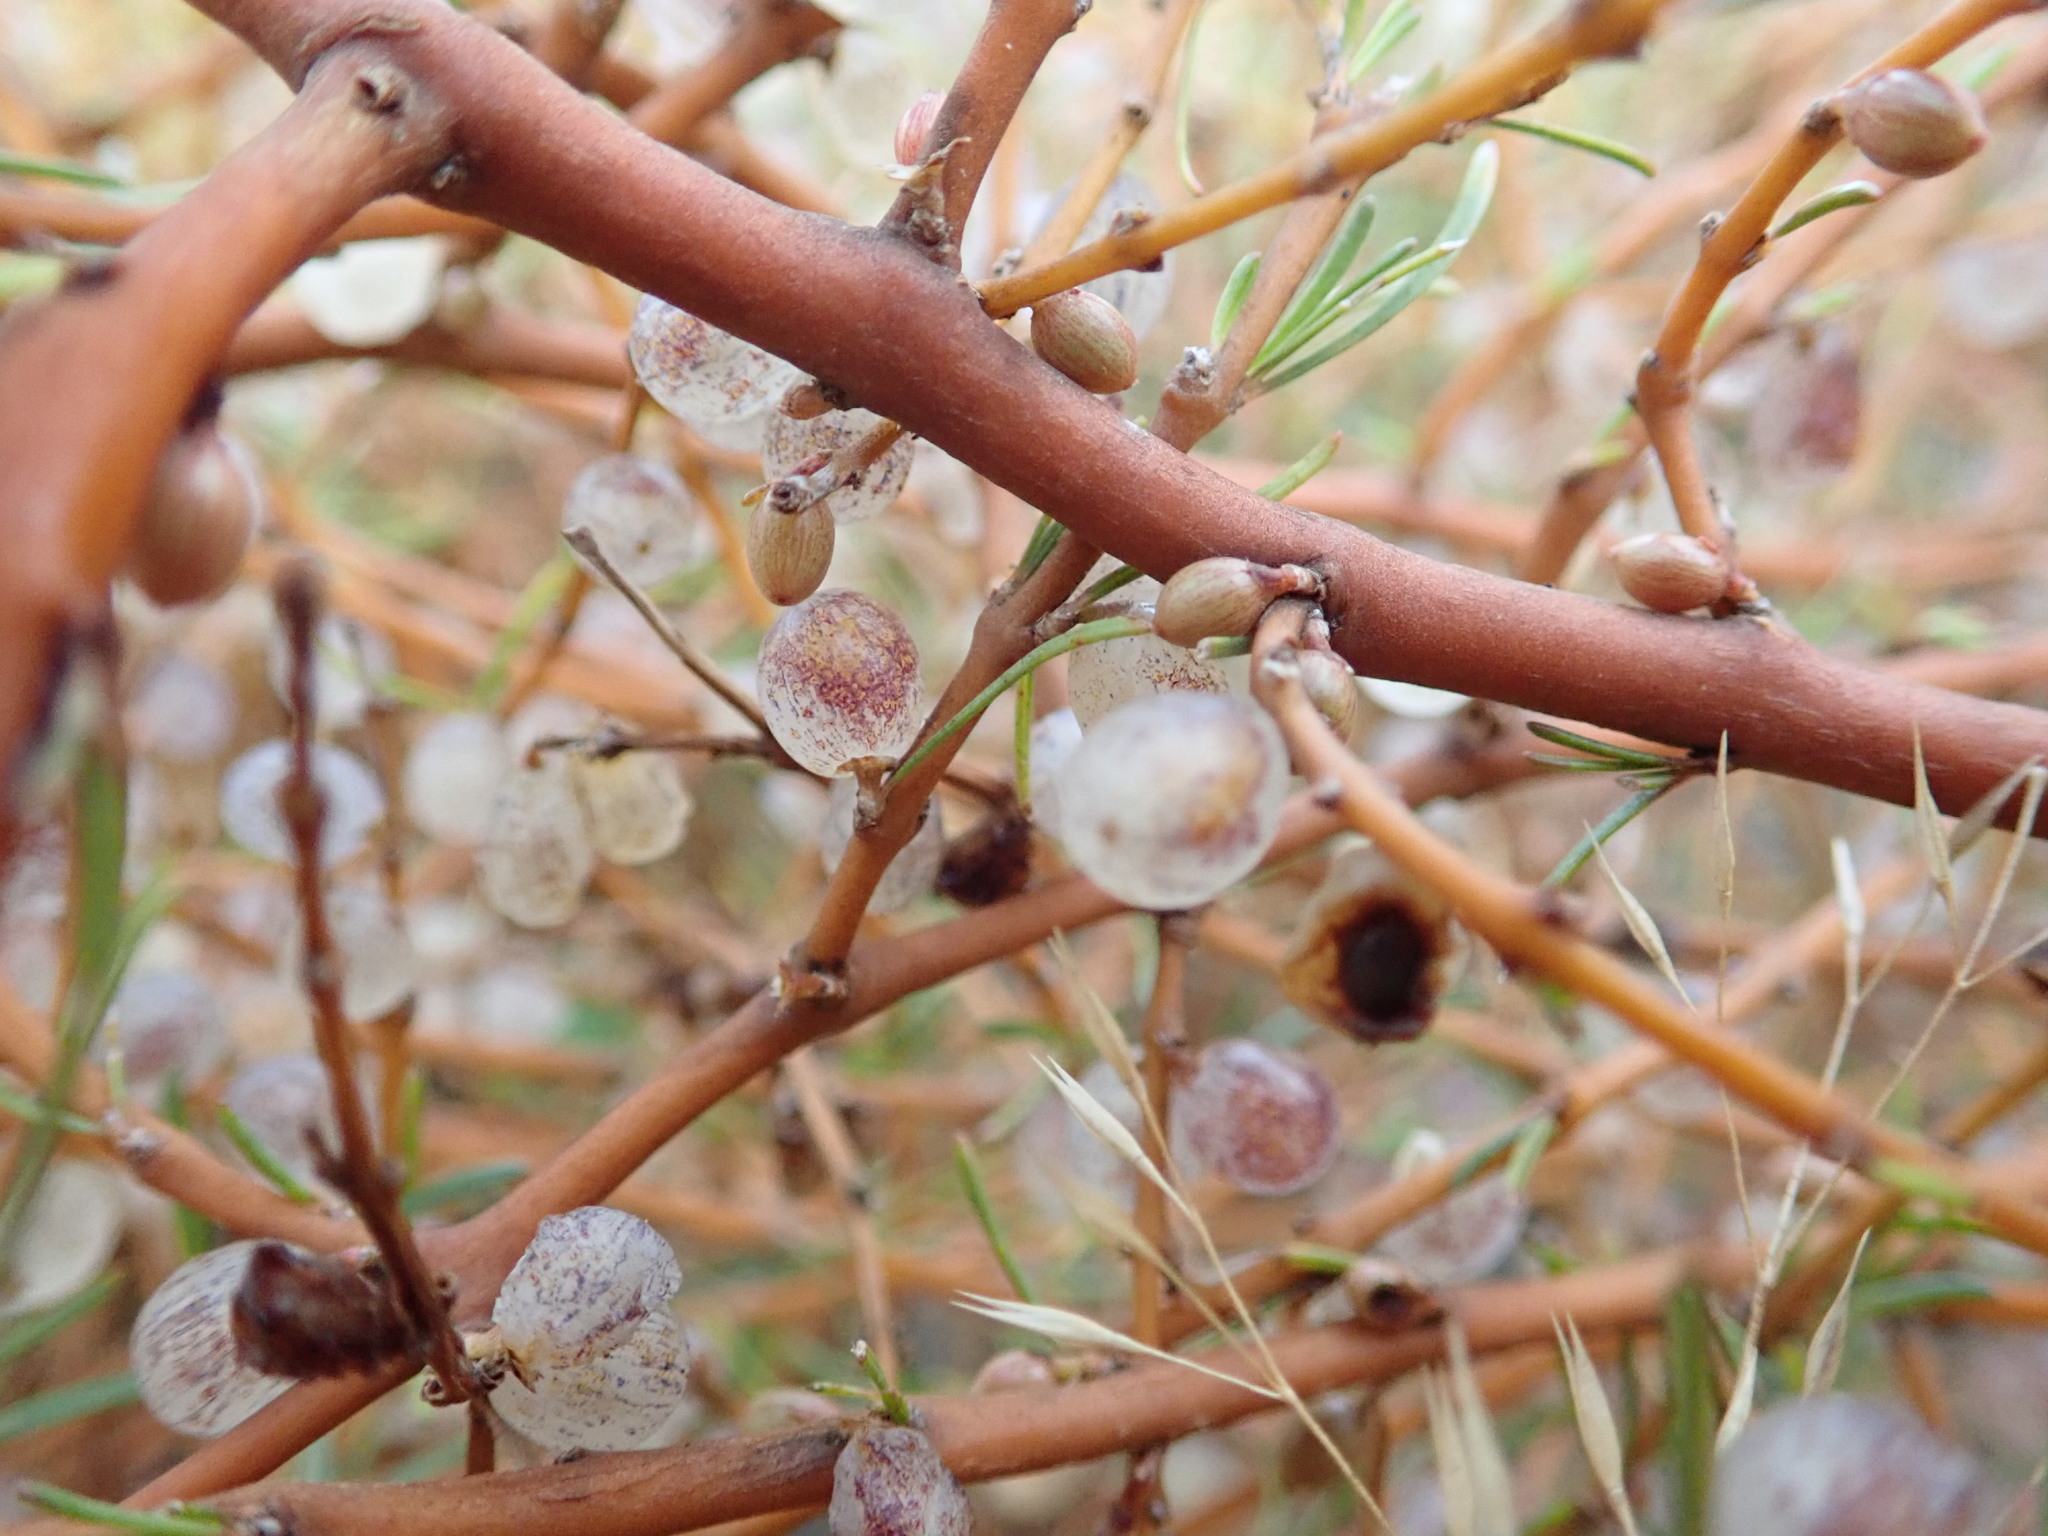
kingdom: Plantae
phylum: Tracheophyta
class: Magnoliopsida
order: Gentianales
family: Rubiaceae
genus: Coprosma
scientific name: Coprosma acerosa
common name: Sand coprosma
